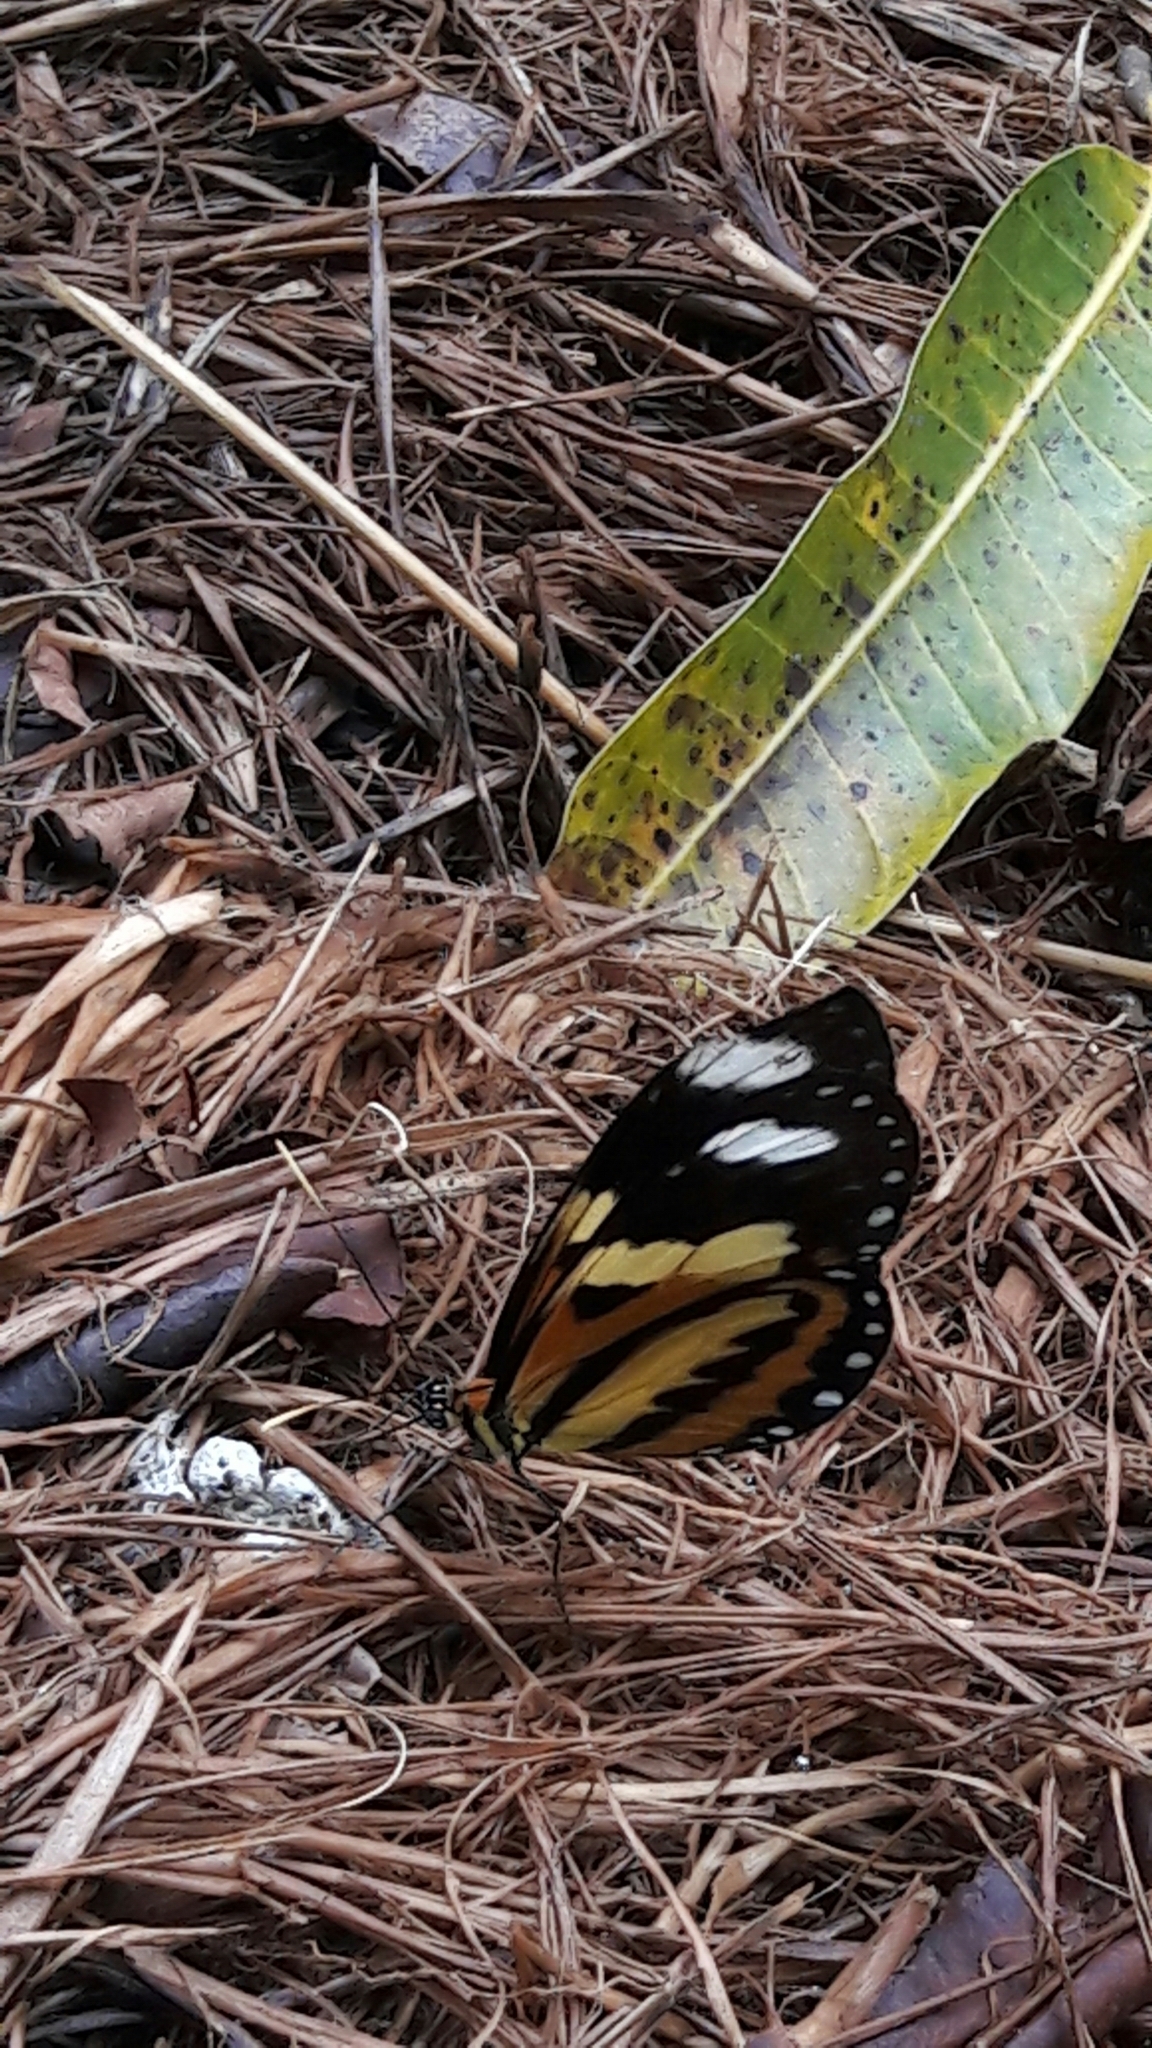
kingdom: Animalia
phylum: Arthropoda
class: Insecta
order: Lepidoptera
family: Nymphalidae
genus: Mechanitis
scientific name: Mechanitis lysimnia
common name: Lysimnia tigerwing
